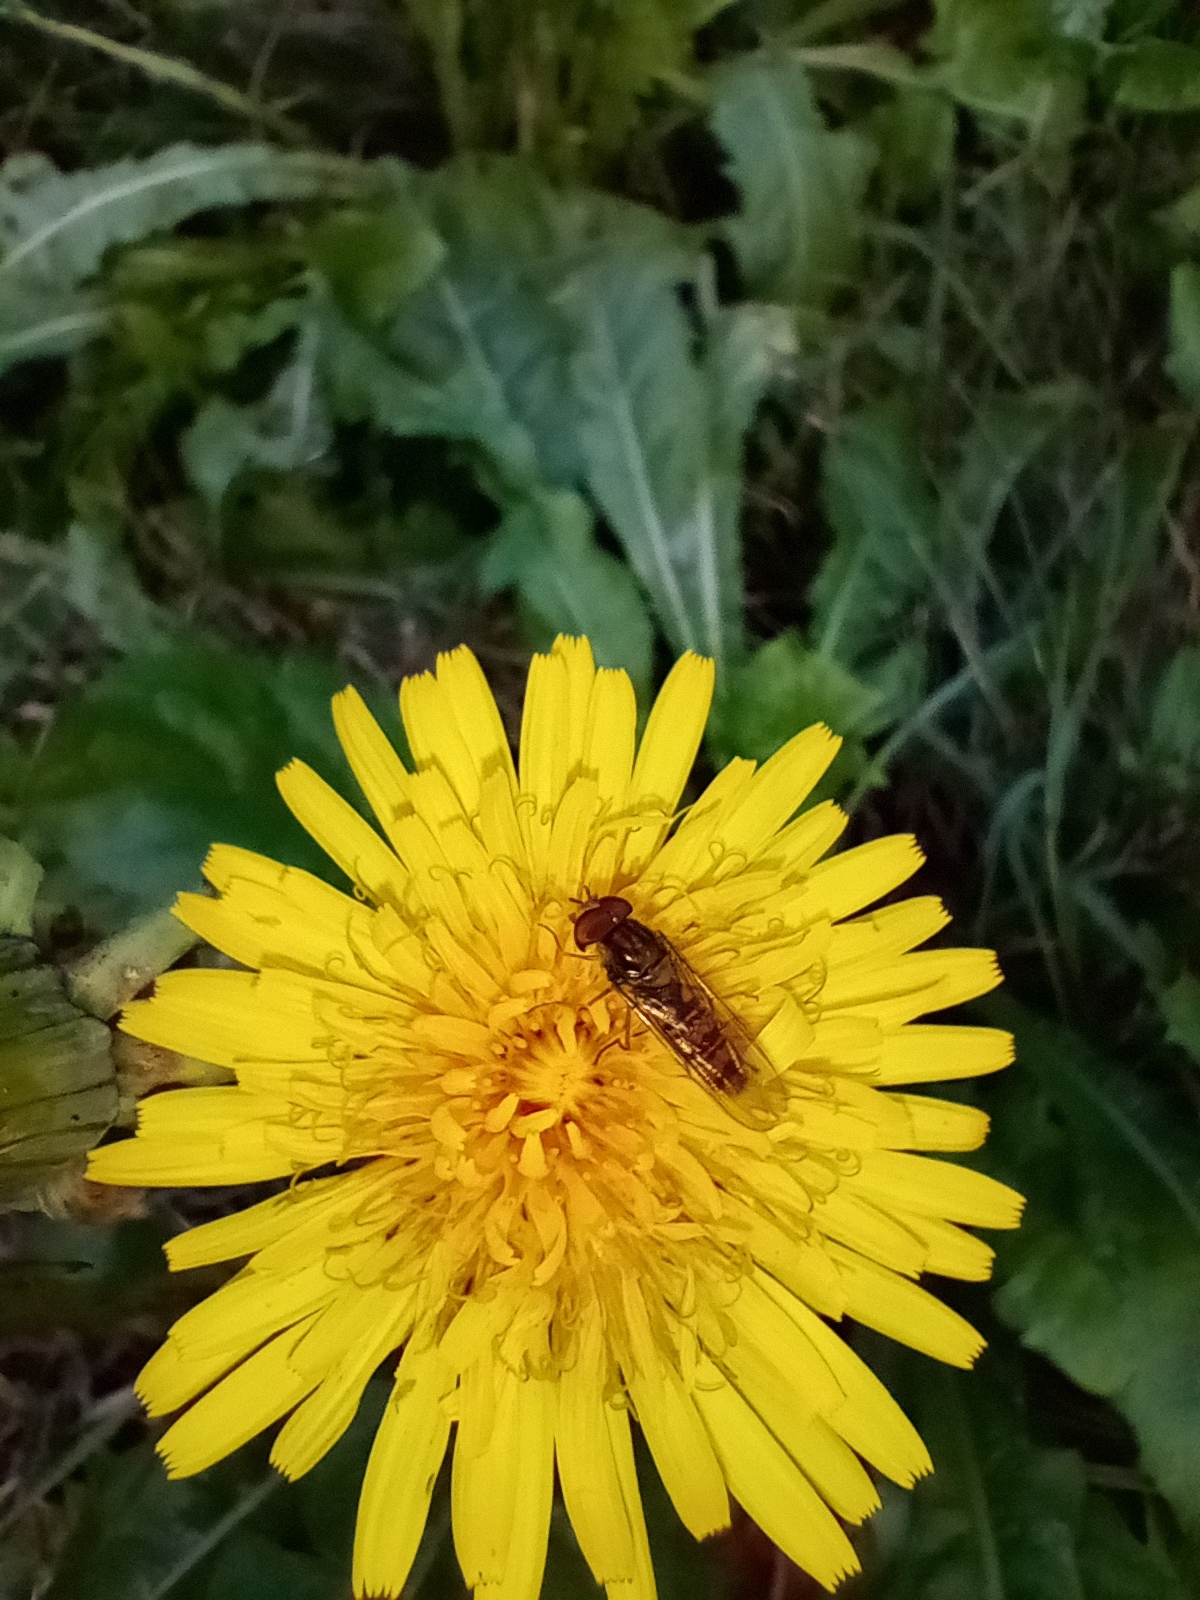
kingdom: Animalia
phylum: Arthropoda
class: Insecta
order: Diptera
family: Syrphidae
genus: Episyrphus
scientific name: Episyrphus balteatus
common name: Marmalade hoverfly
